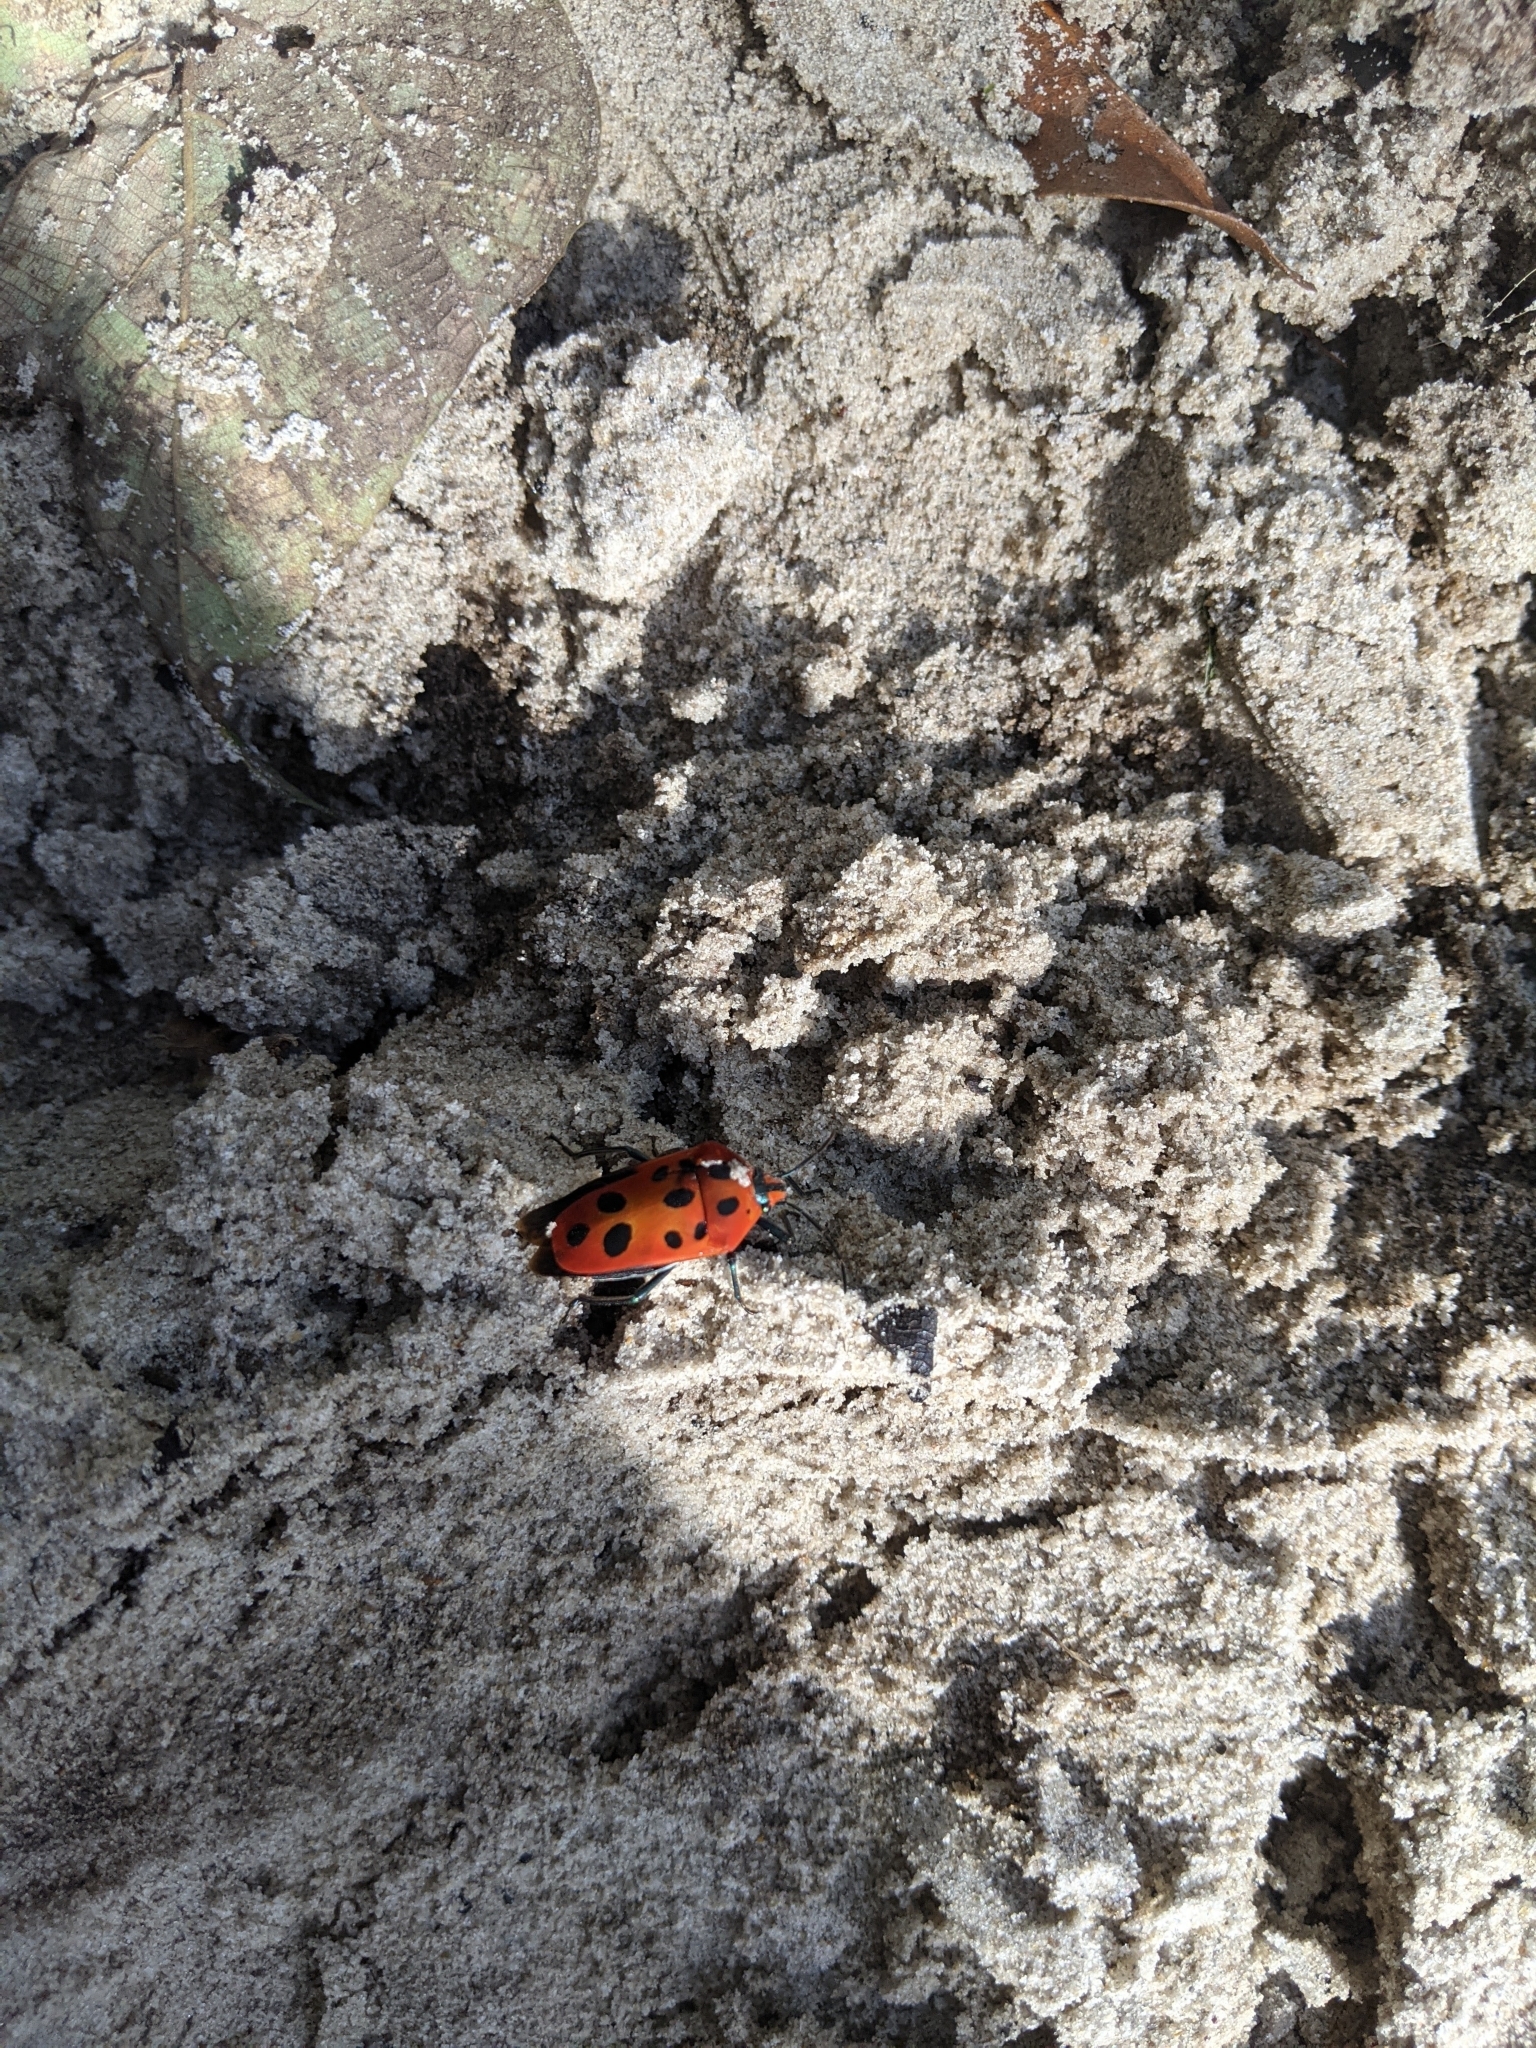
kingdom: Animalia
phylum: Arthropoda
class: Insecta
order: Hemiptera
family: Scutelleridae
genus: Cantao
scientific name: Cantao
